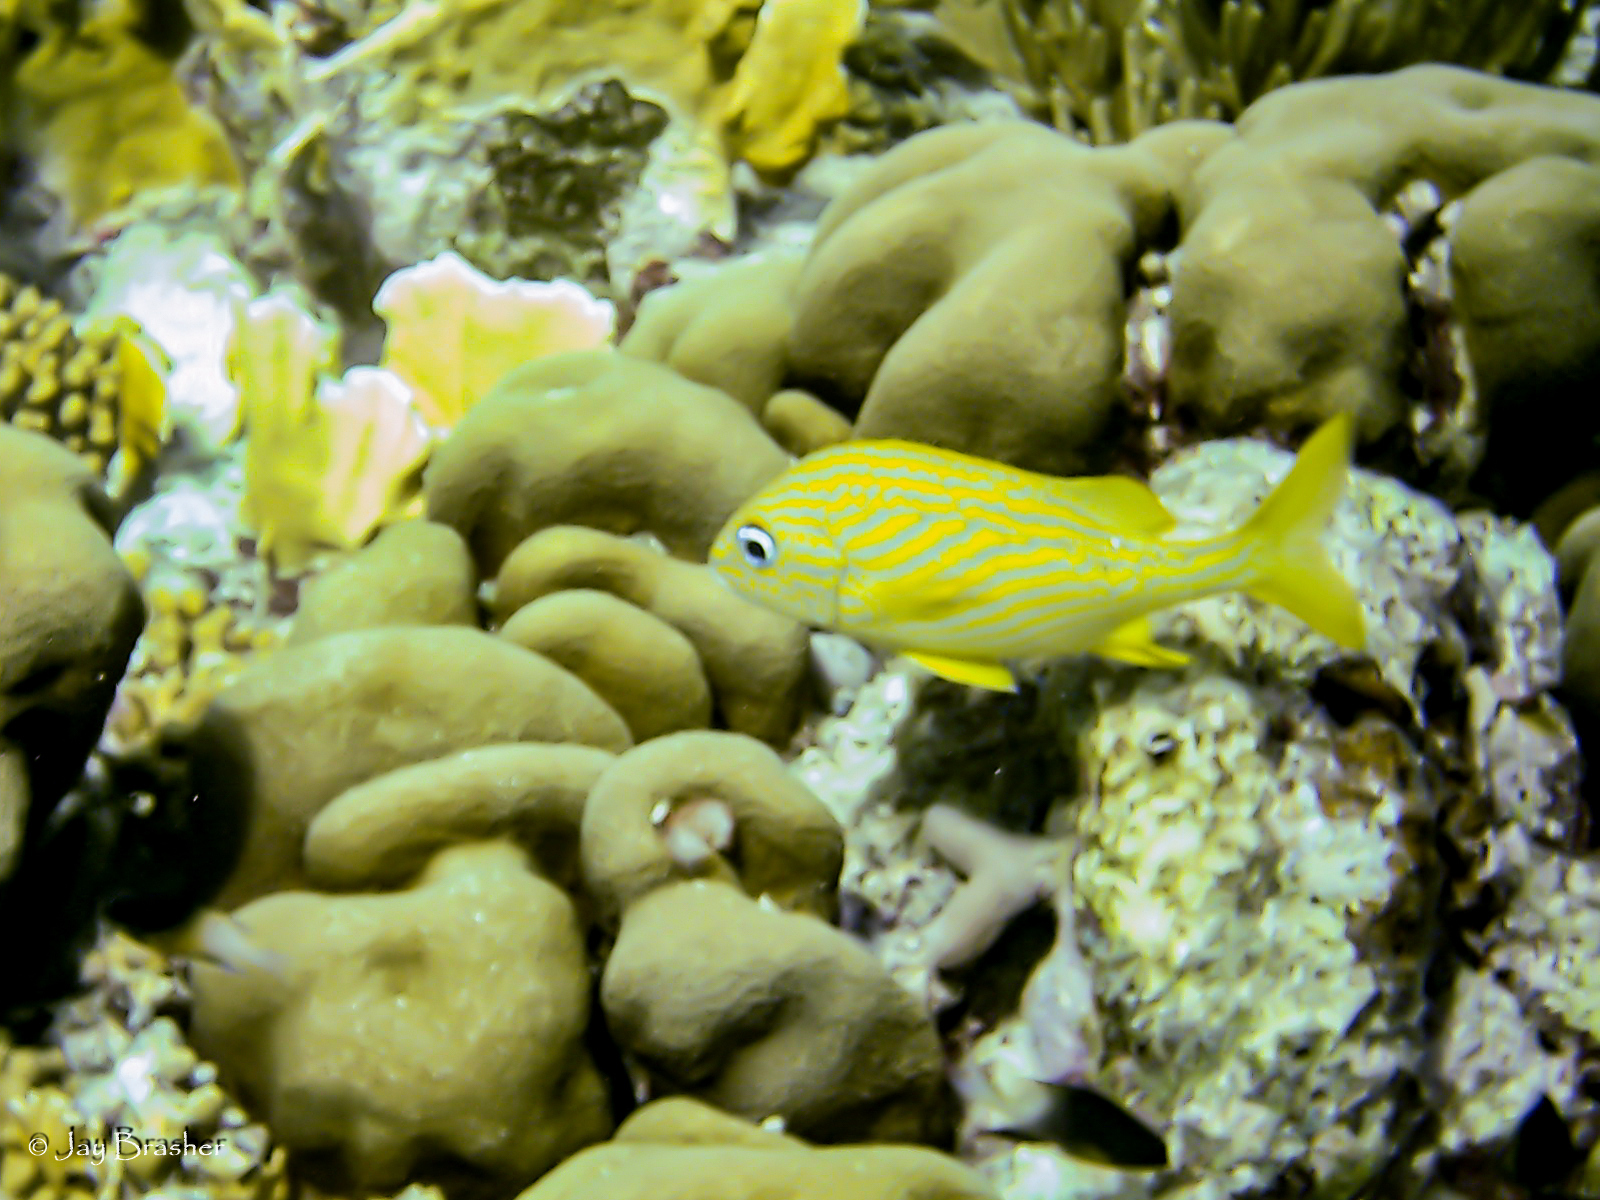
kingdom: Animalia
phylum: Chordata
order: Perciformes
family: Haemulidae
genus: Haemulon
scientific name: Haemulon flavolineatum
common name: French grunt
